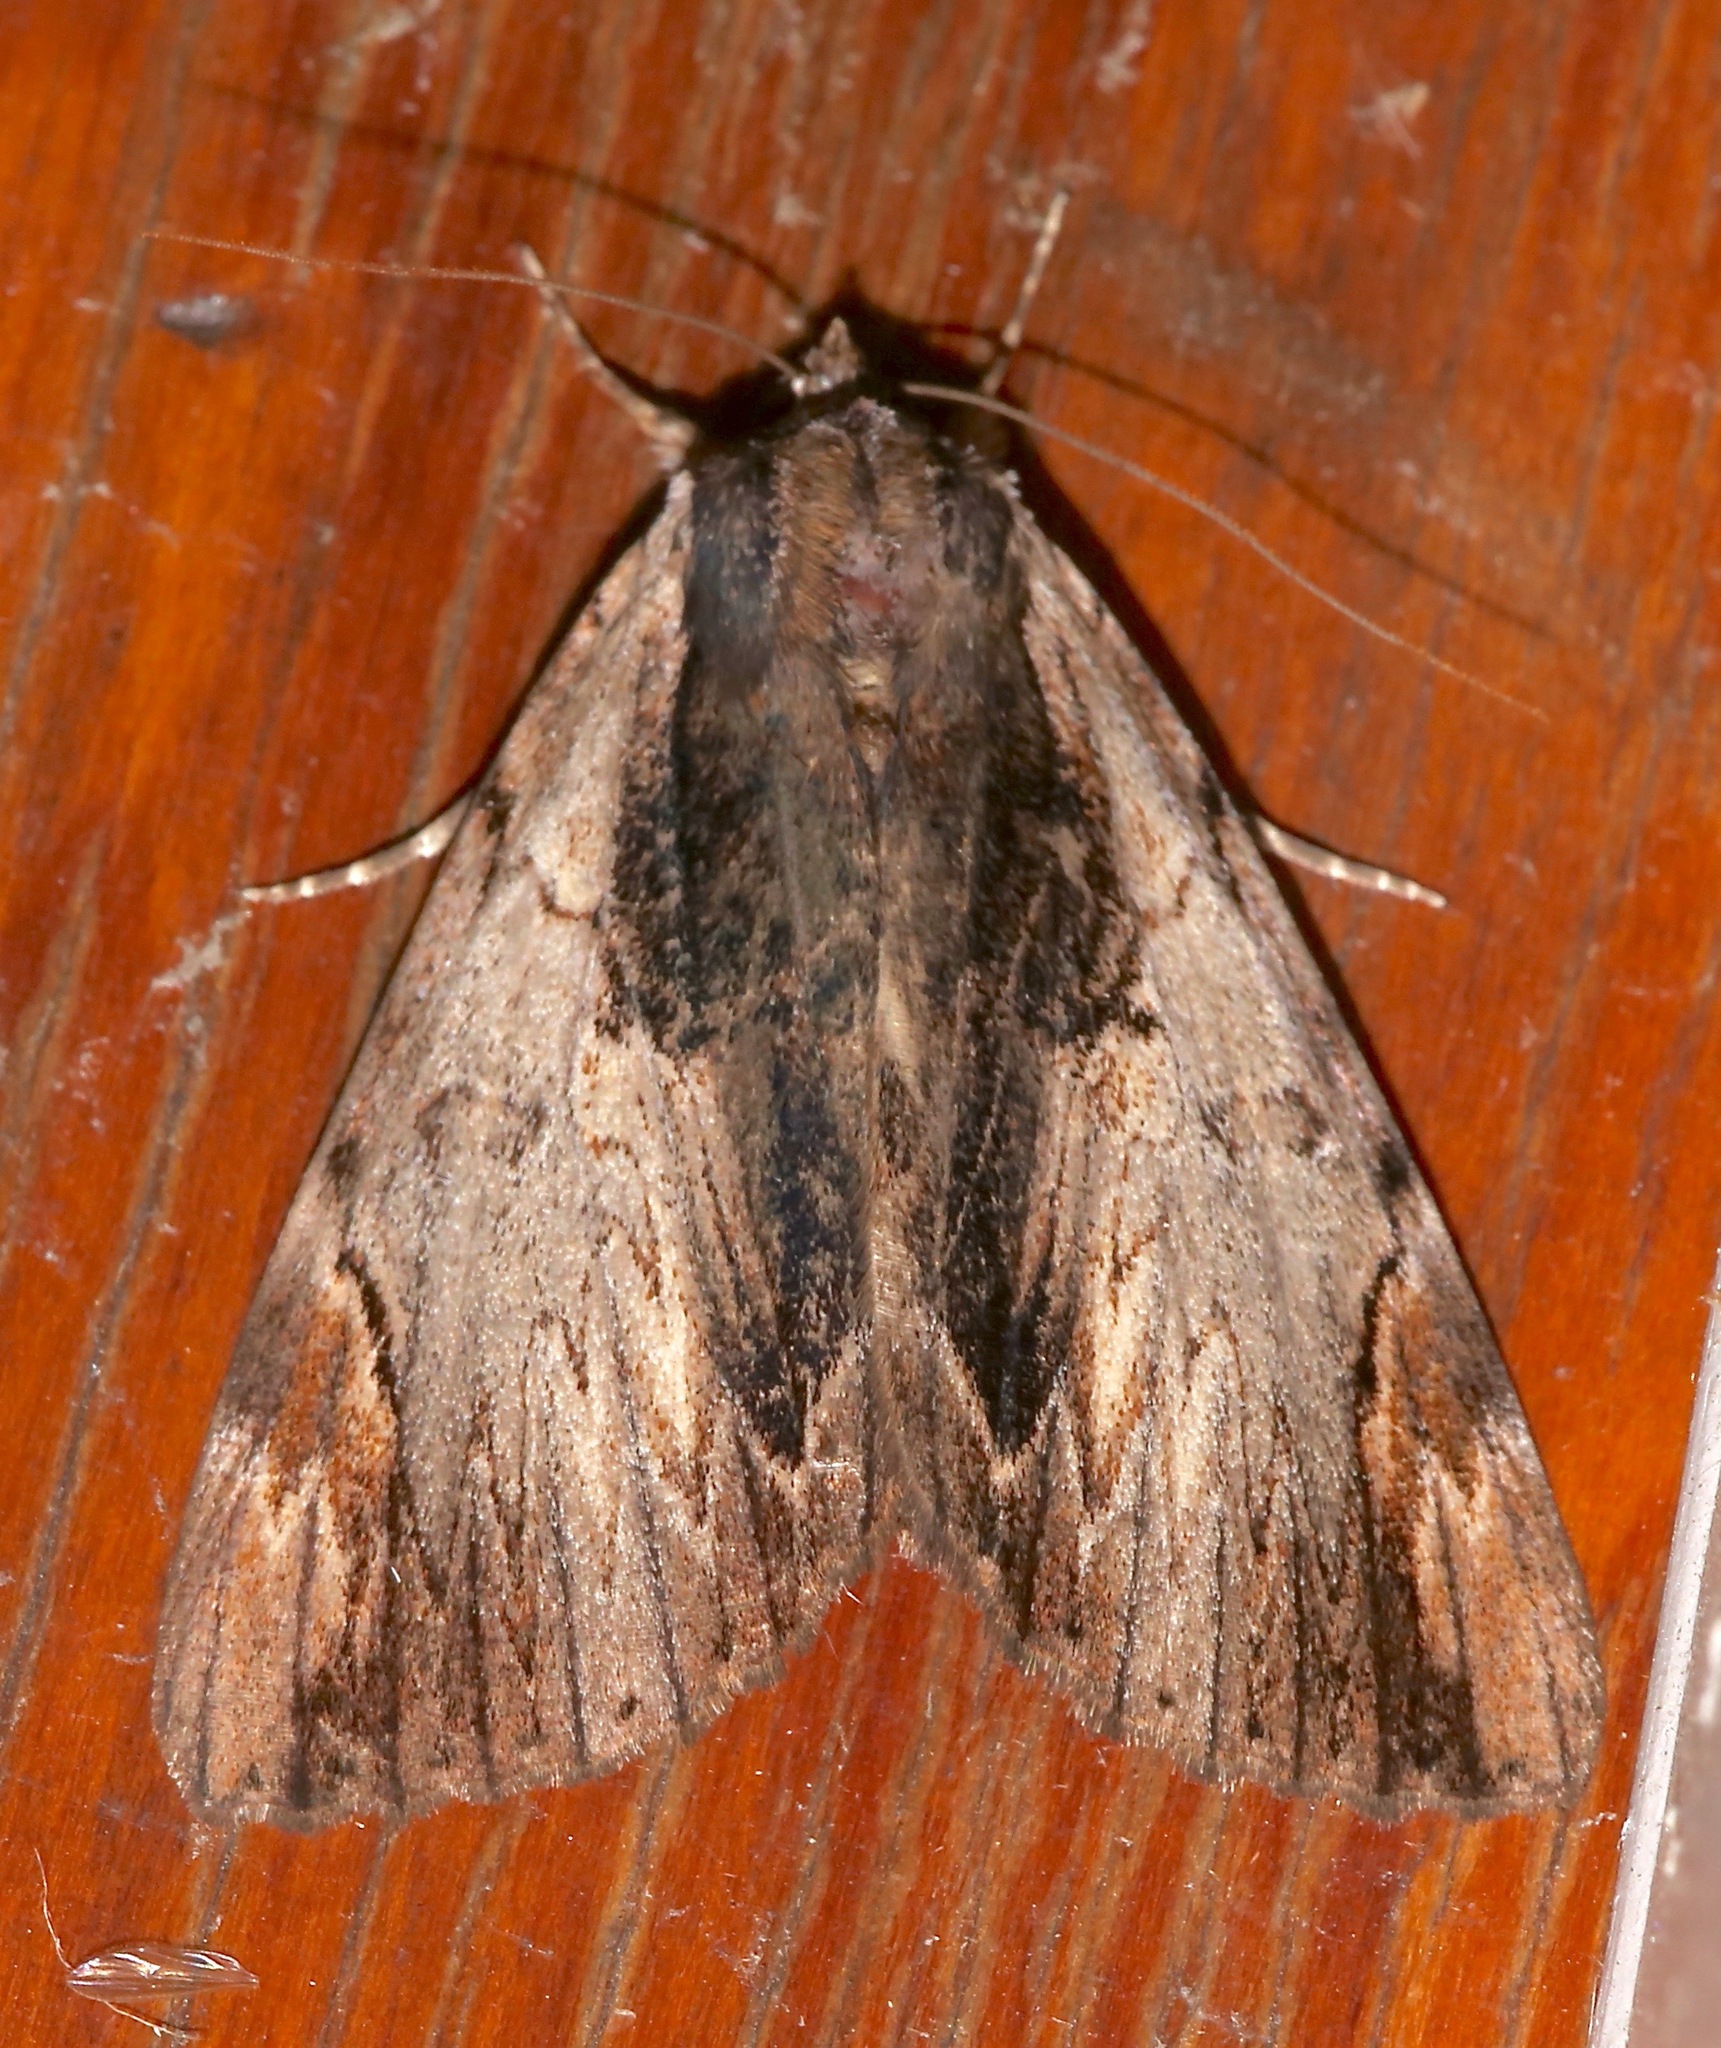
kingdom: Animalia
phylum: Arthropoda
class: Insecta
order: Lepidoptera
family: Erebidae
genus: Catocala
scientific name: Catocala ultronia
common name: Ultronia underwing
